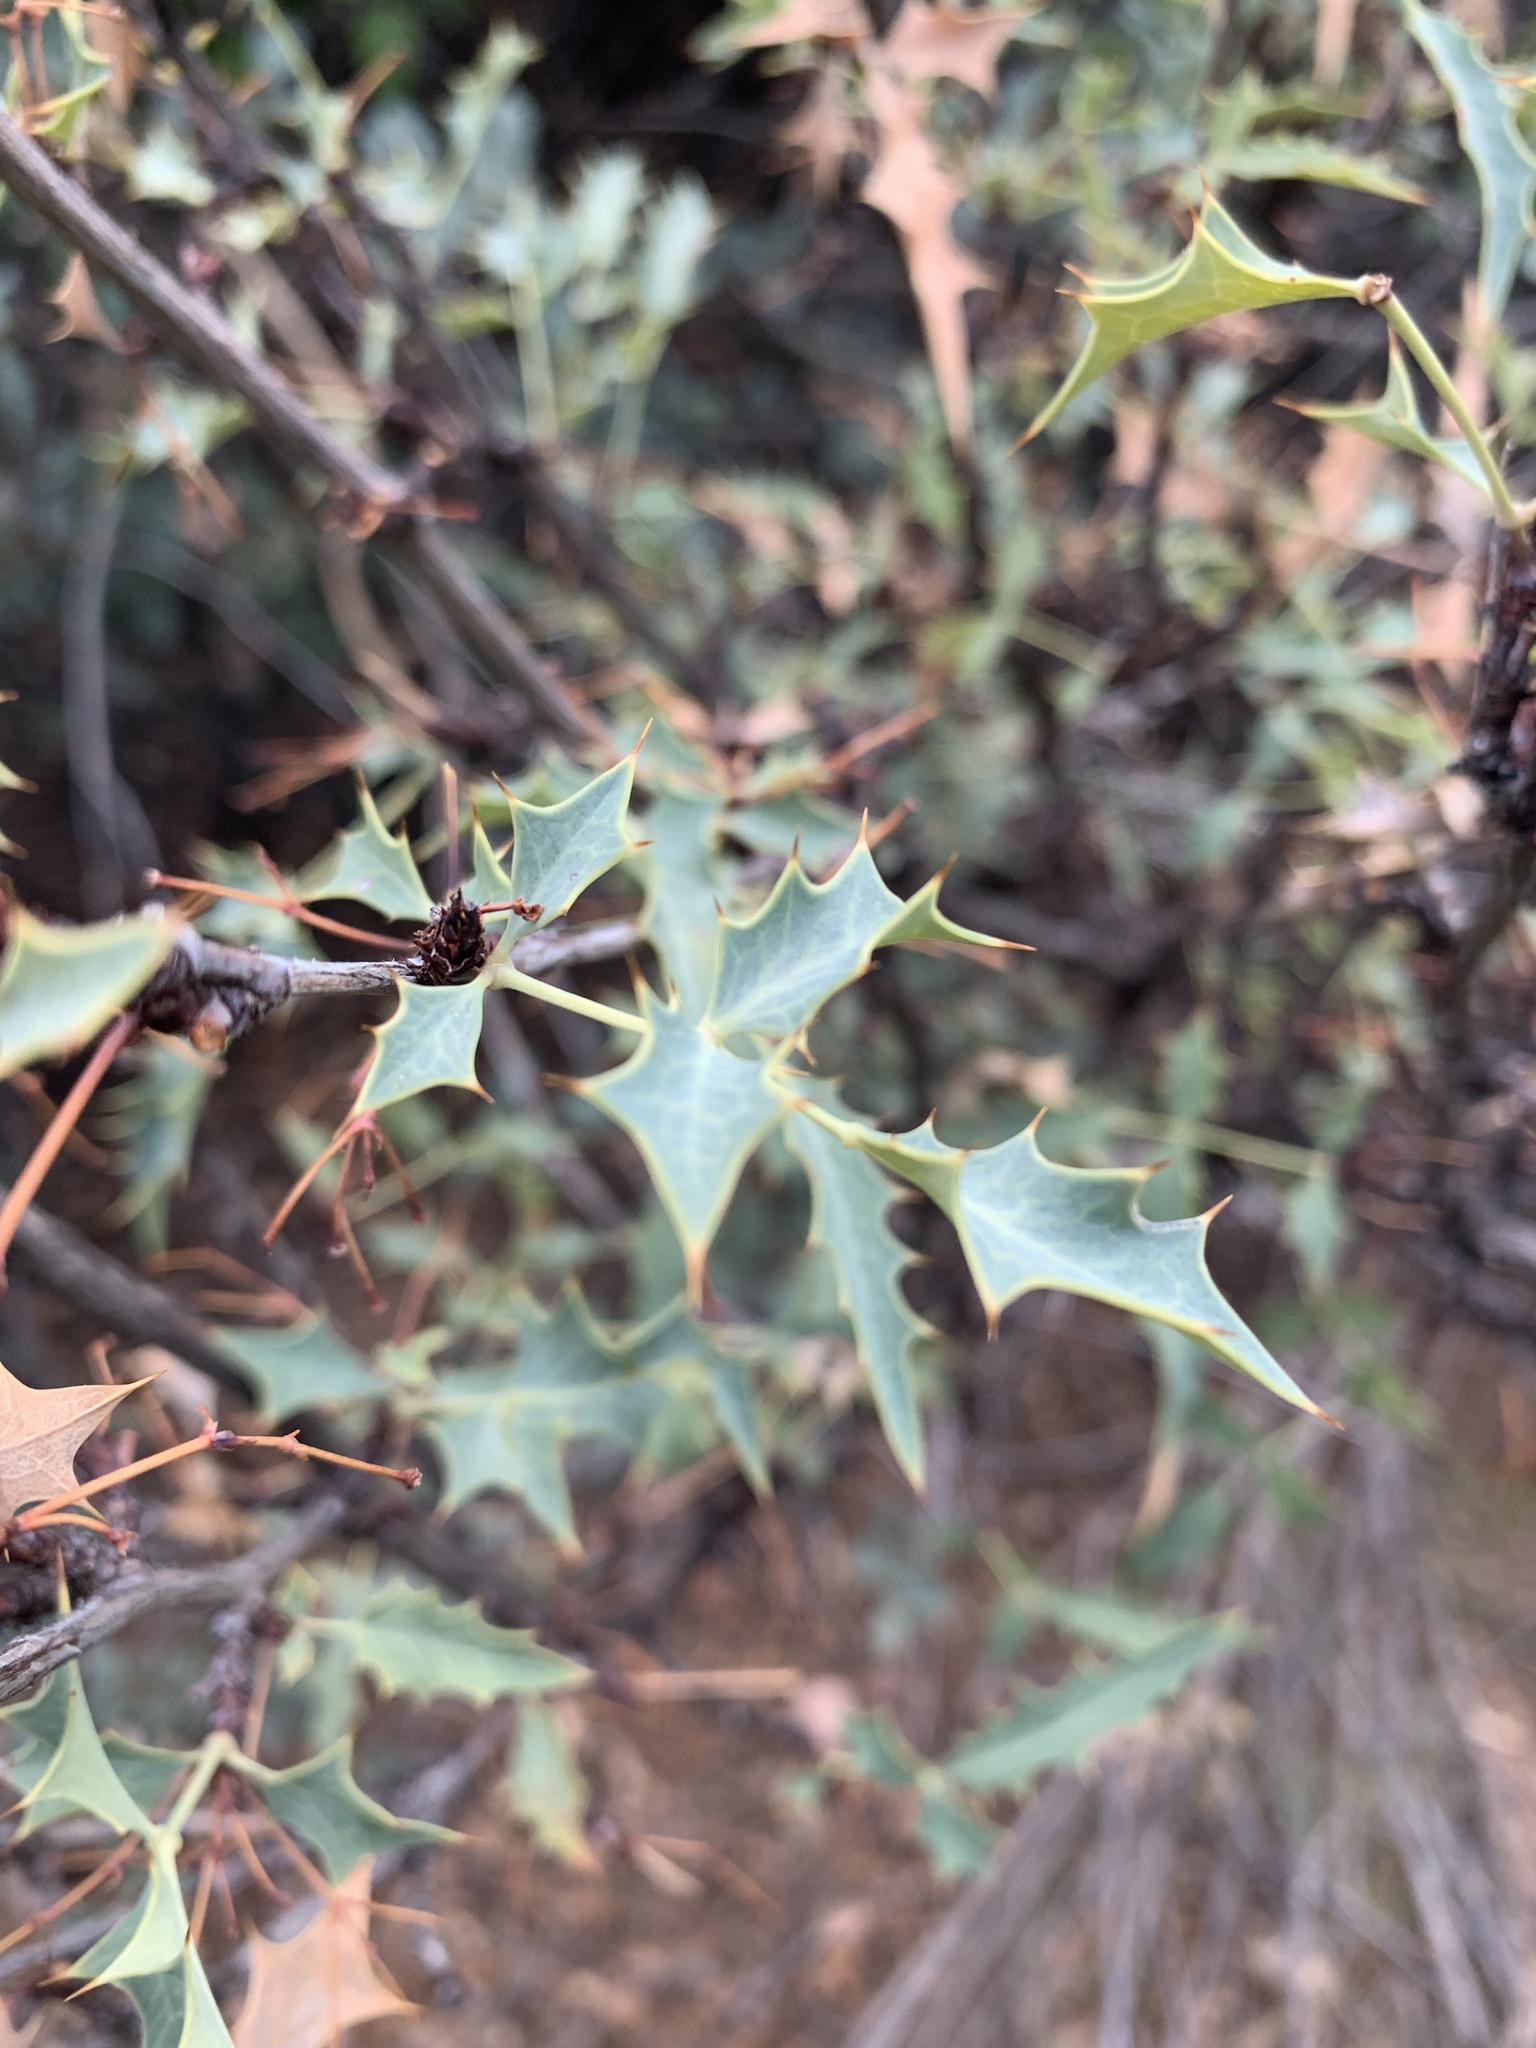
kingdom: Plantae
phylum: Tracheophyta
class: Magnoliopsida
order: Ranunculales
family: Berberidaceae
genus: Alloberberis
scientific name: Alloberberis haematocarpa
